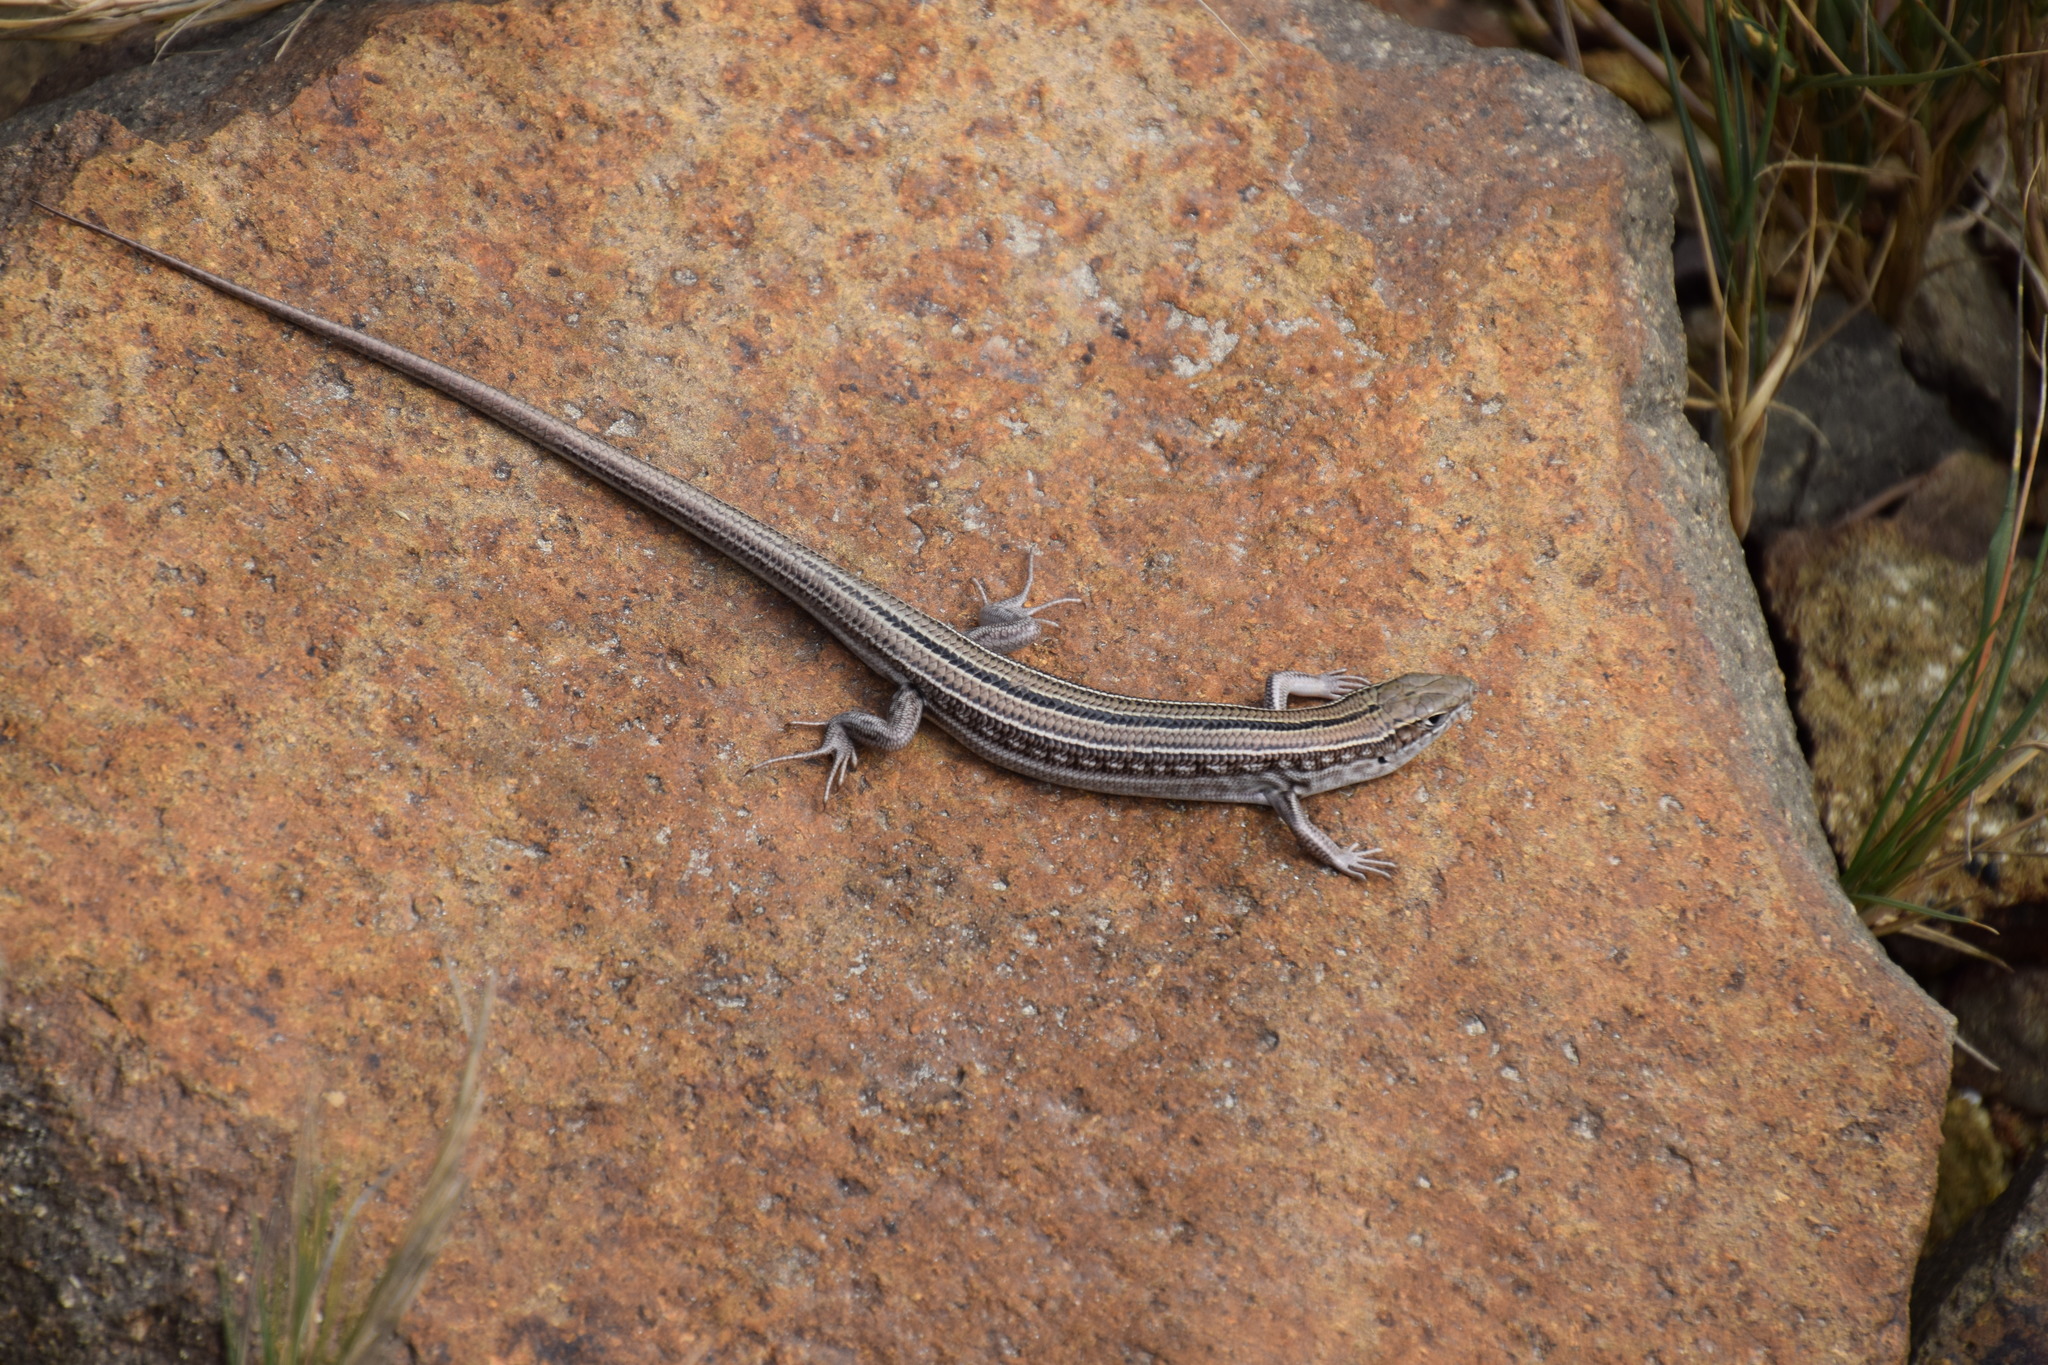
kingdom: Animalia
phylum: Chordata
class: Squamata
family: Scincidae
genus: Ctenotus
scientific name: Ctenotus robustus
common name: Robust ctenotus
